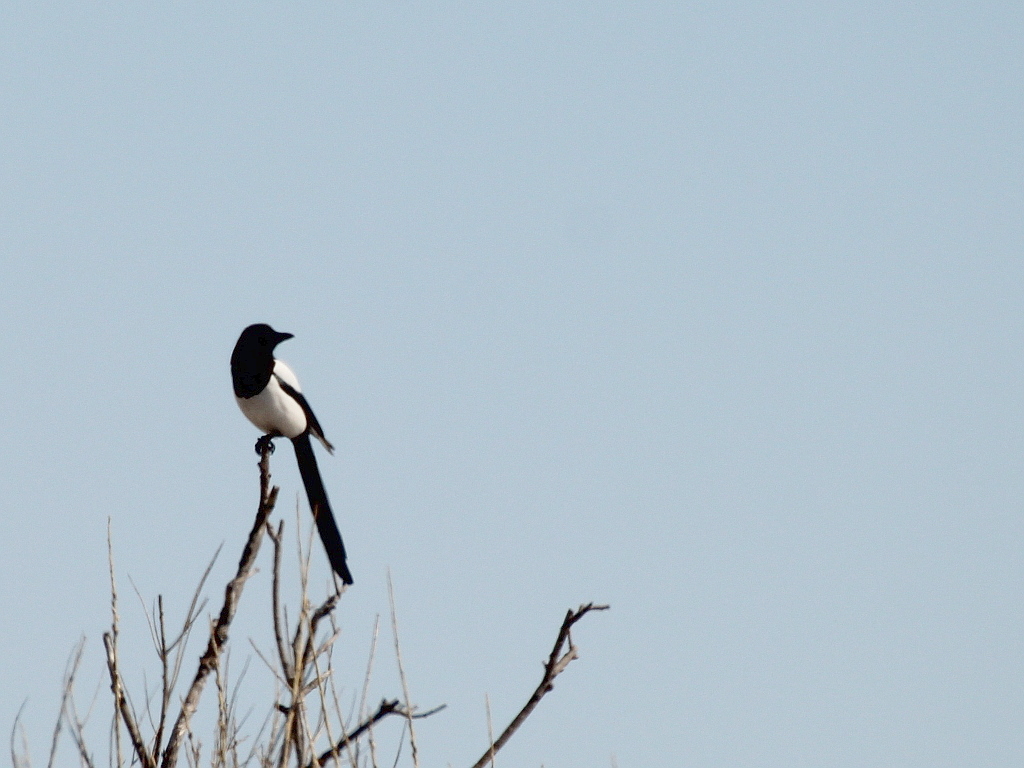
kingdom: Animalia
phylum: Chordata
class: Aves
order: Passeriformes
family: Corvidae
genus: Pica
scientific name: Pica pica
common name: Eurasian magpie
